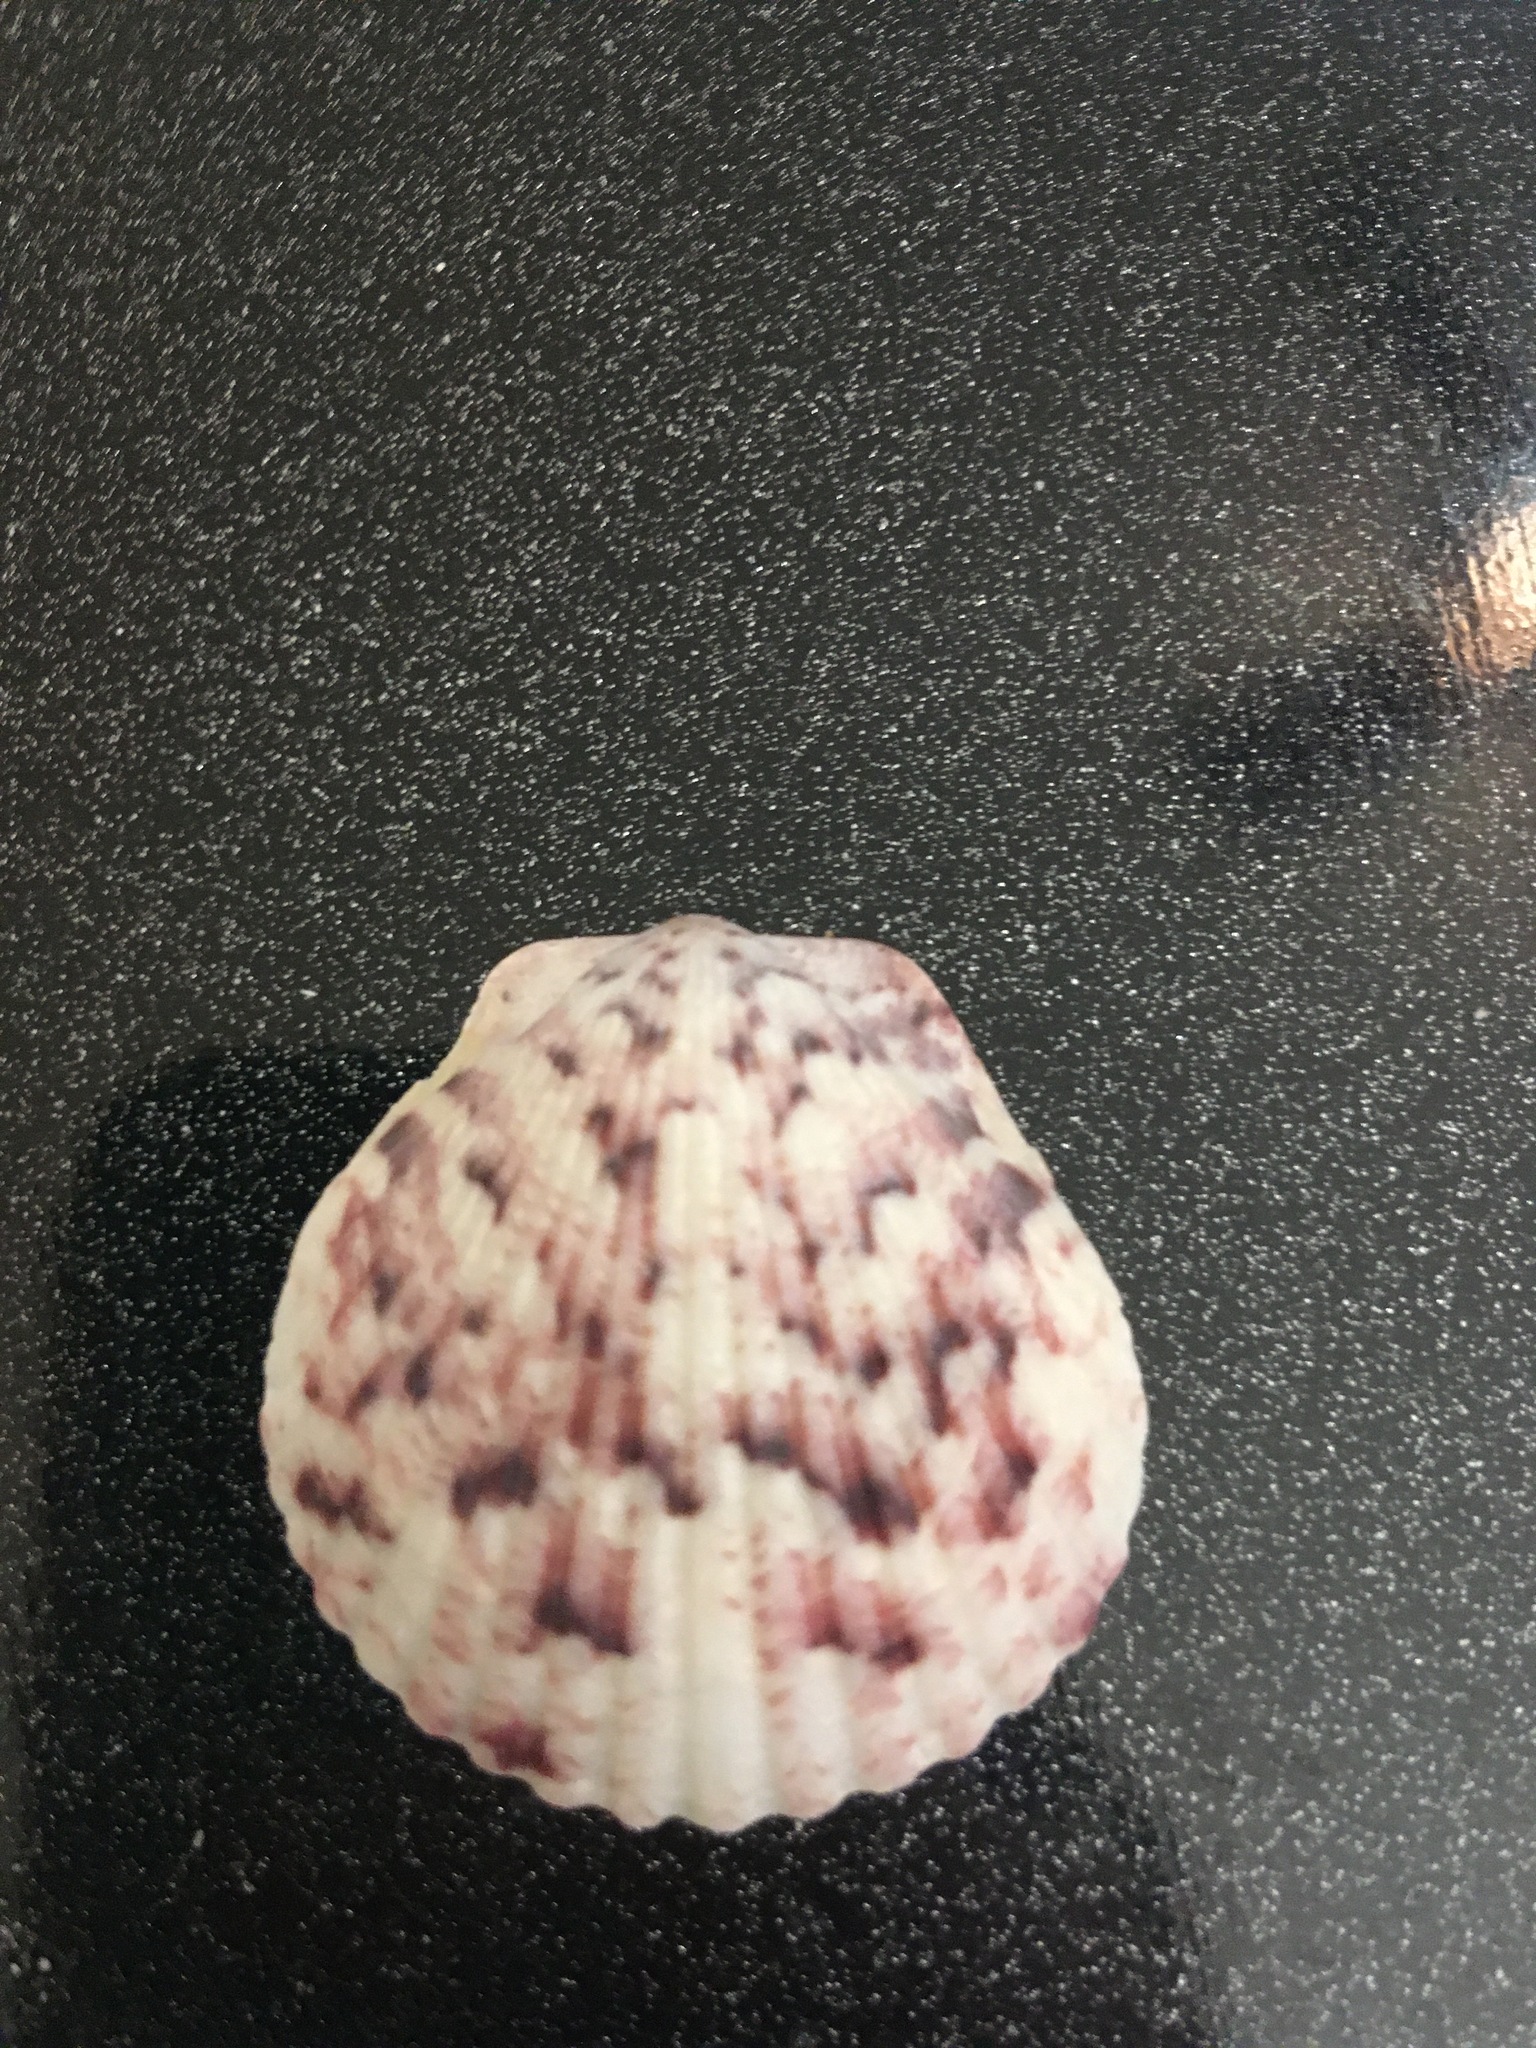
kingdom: Animalia
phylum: Mollusca
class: Bivalvia
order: Pectinida
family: Pectinidae
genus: Argopecten
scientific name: Argopecten gibbus
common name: Atlantic calico scallop
